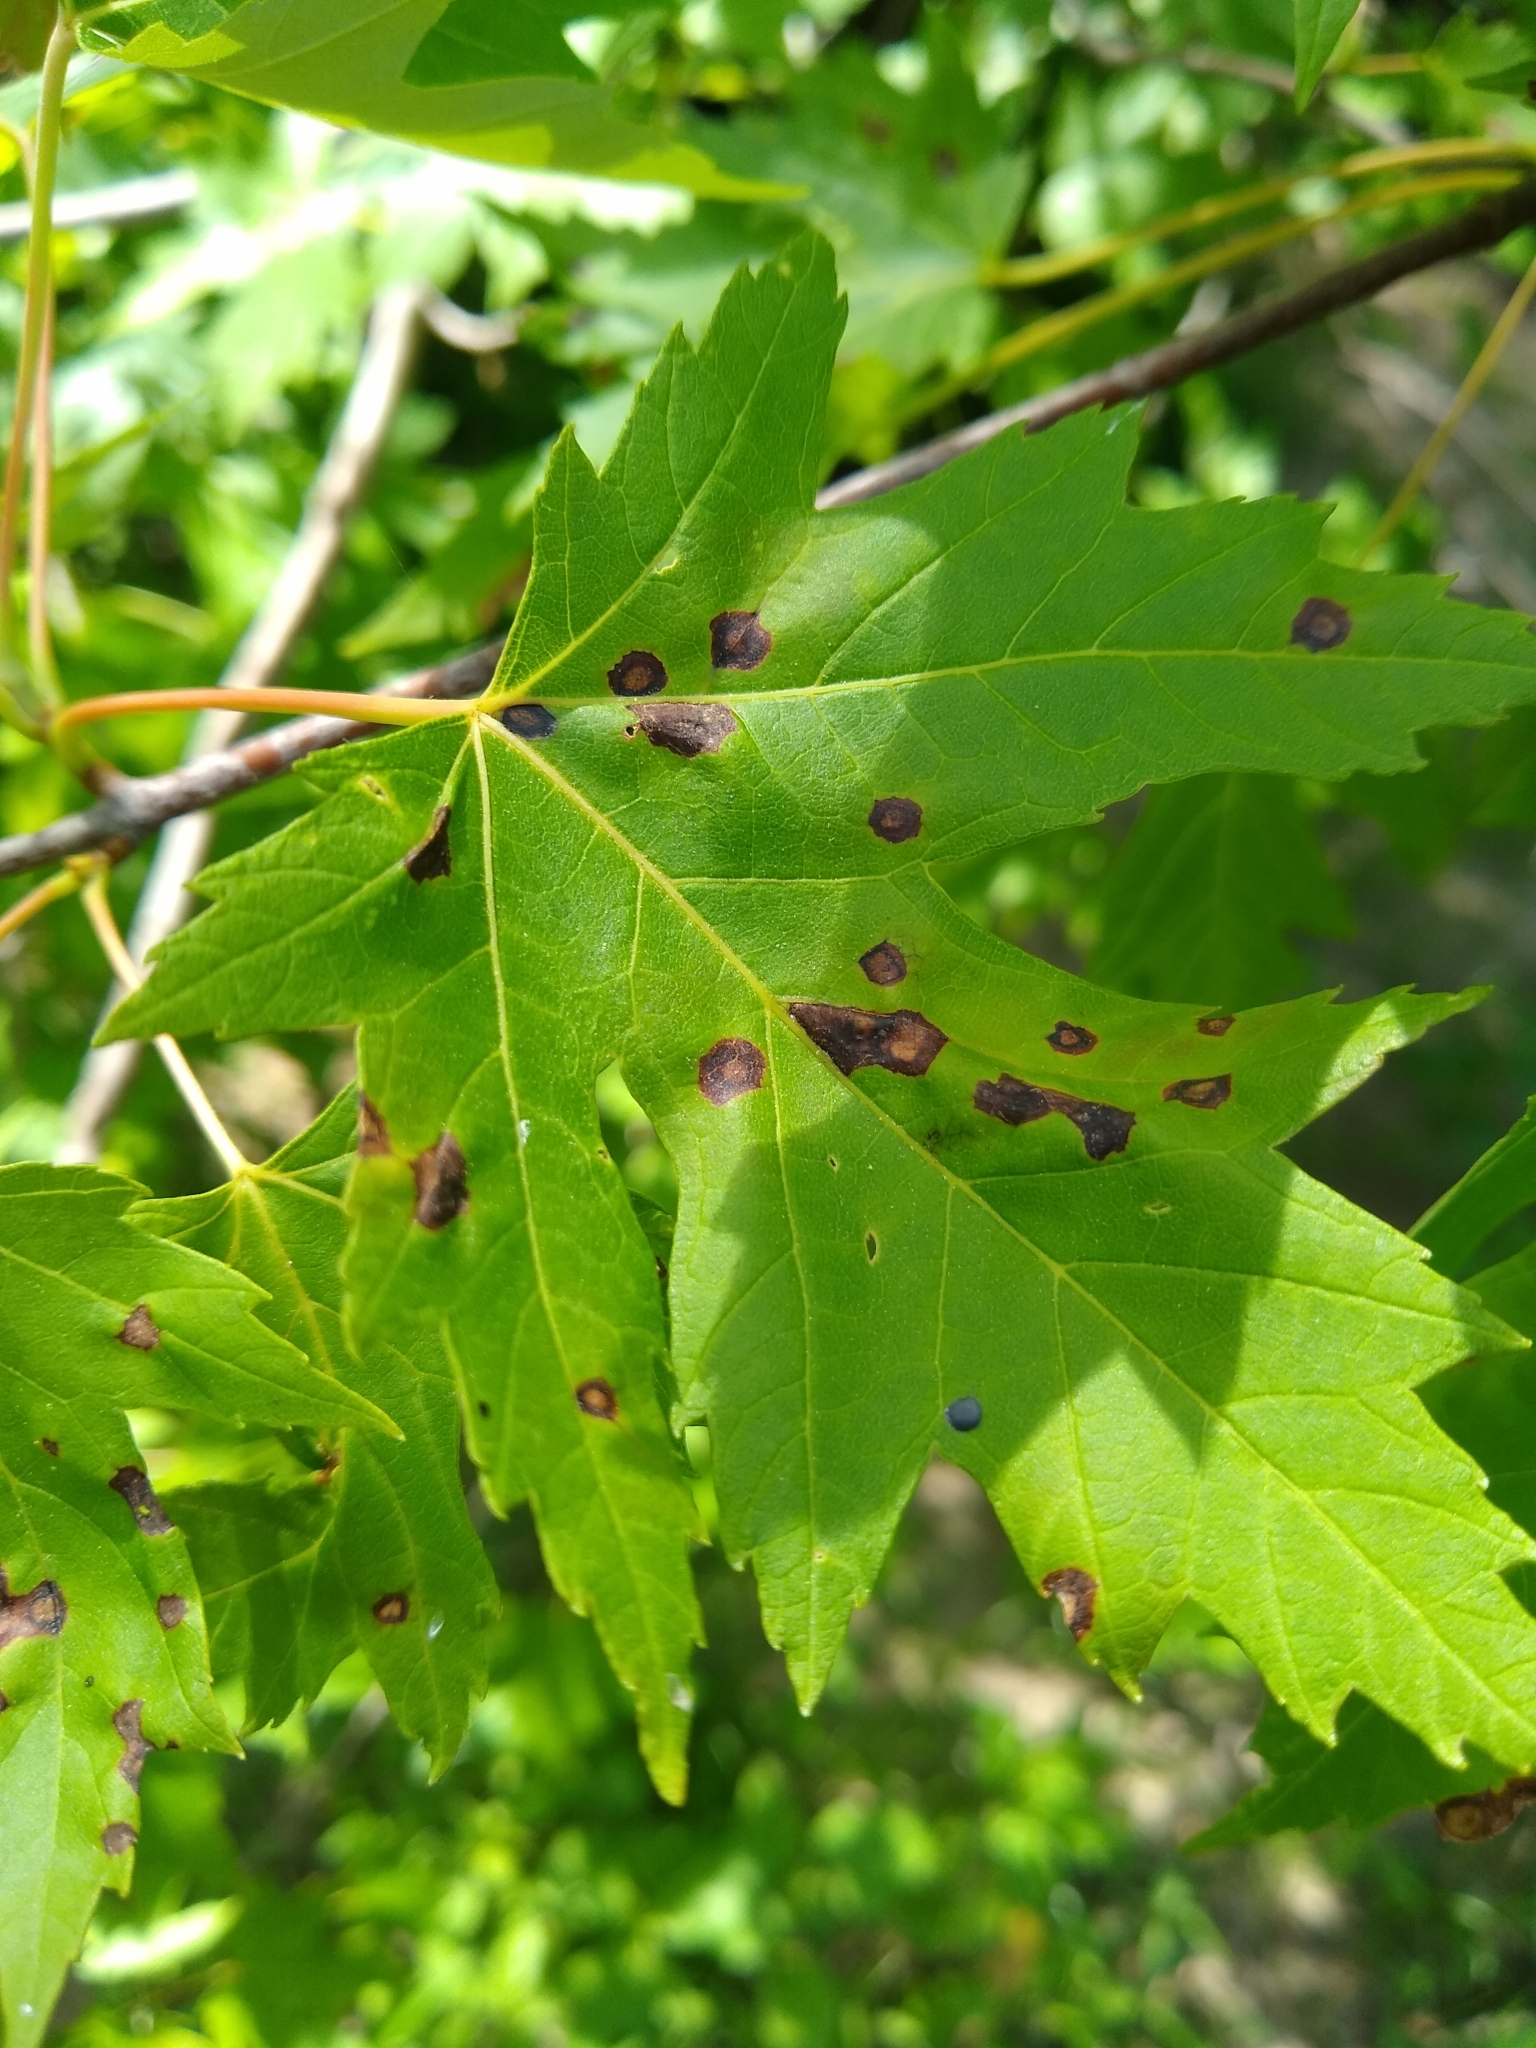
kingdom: Plantae
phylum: Tracheophyta
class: Magnoliopsida
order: Sapindales
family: Sapindaceae
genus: Acer
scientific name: Acer saccharinum
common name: Silver maple
